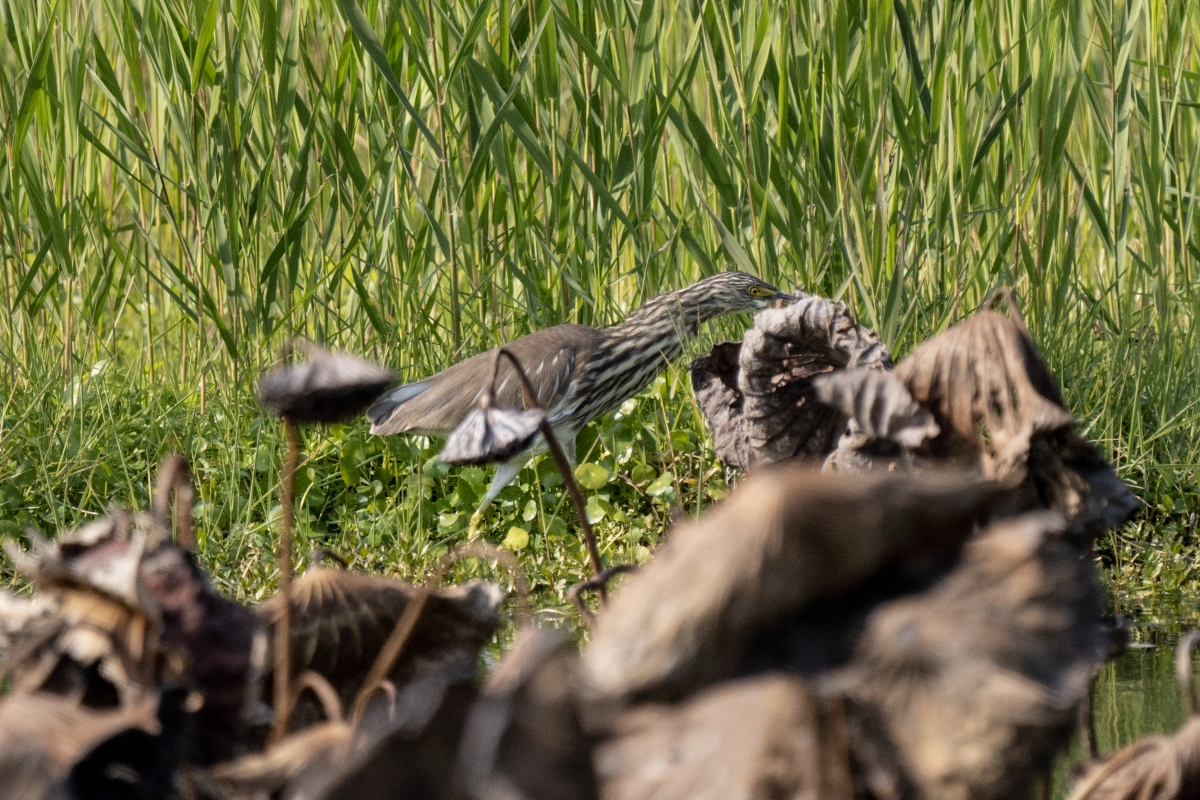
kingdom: Animalia
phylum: Chordata
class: Aves
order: Pelecaniformes
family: Ardeidae
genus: Ardeola
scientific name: Ardeola bacchus
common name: Chinese pond heron
